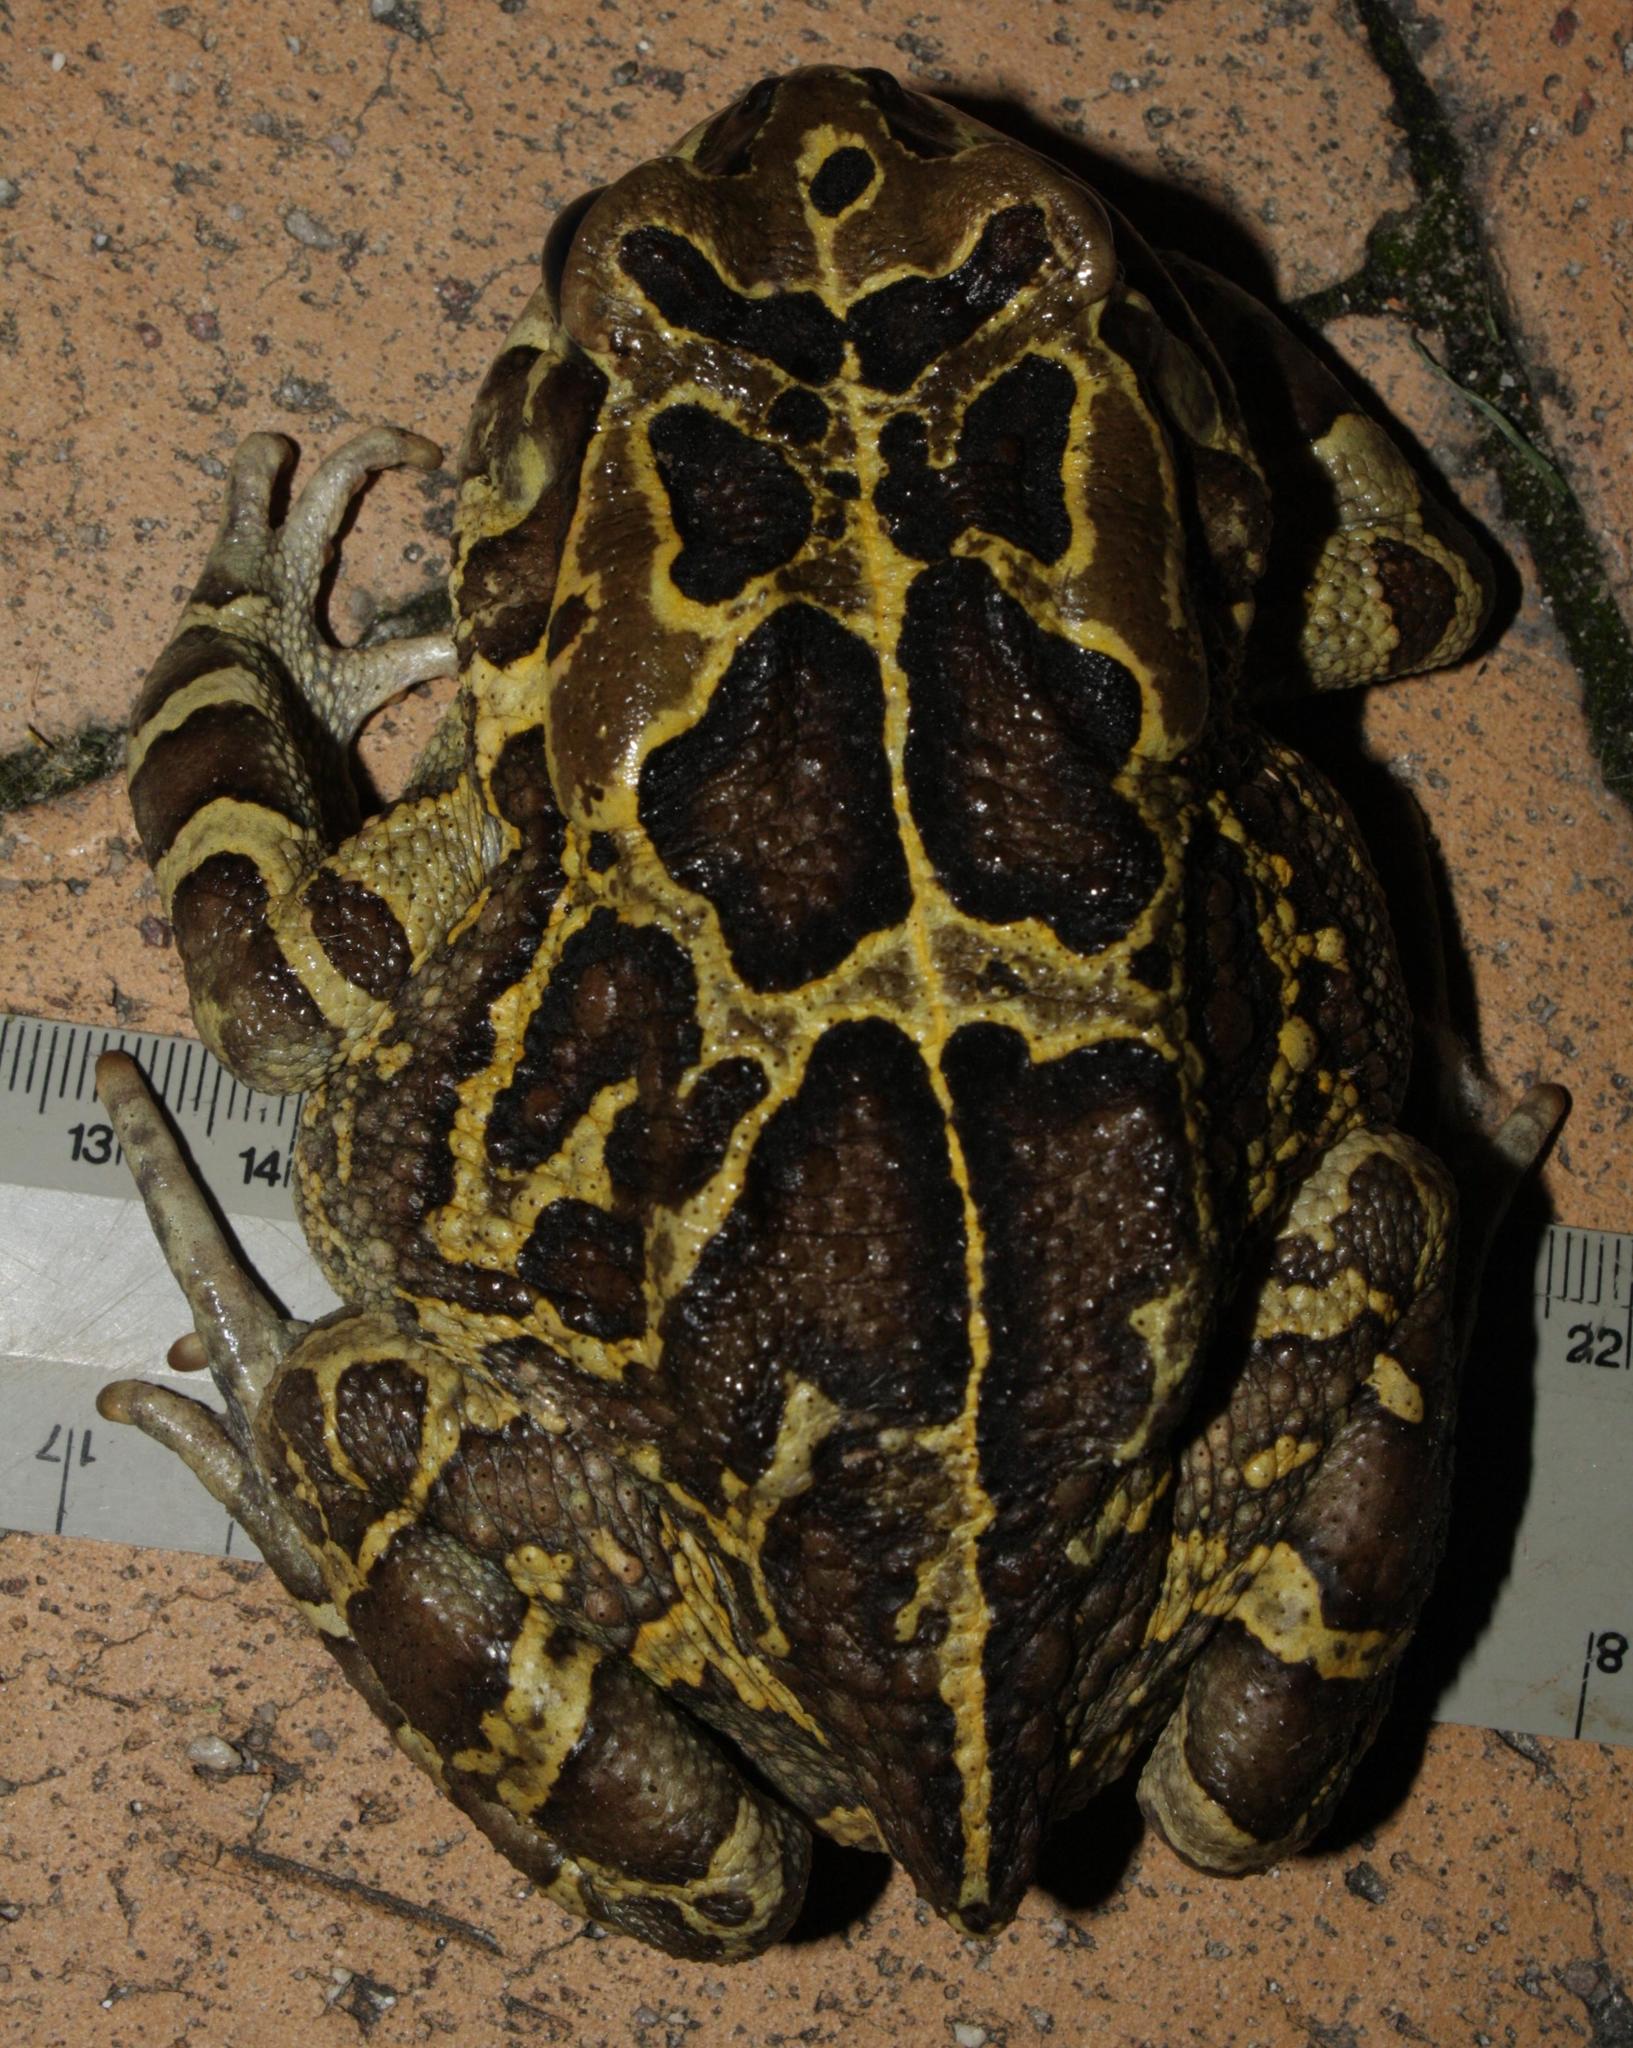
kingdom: Animalia
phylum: Chordata
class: Amphibia
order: Anura
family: Bufonidae
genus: Sclerophrys
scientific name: Sclerophrys pantherina
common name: Panther toad
